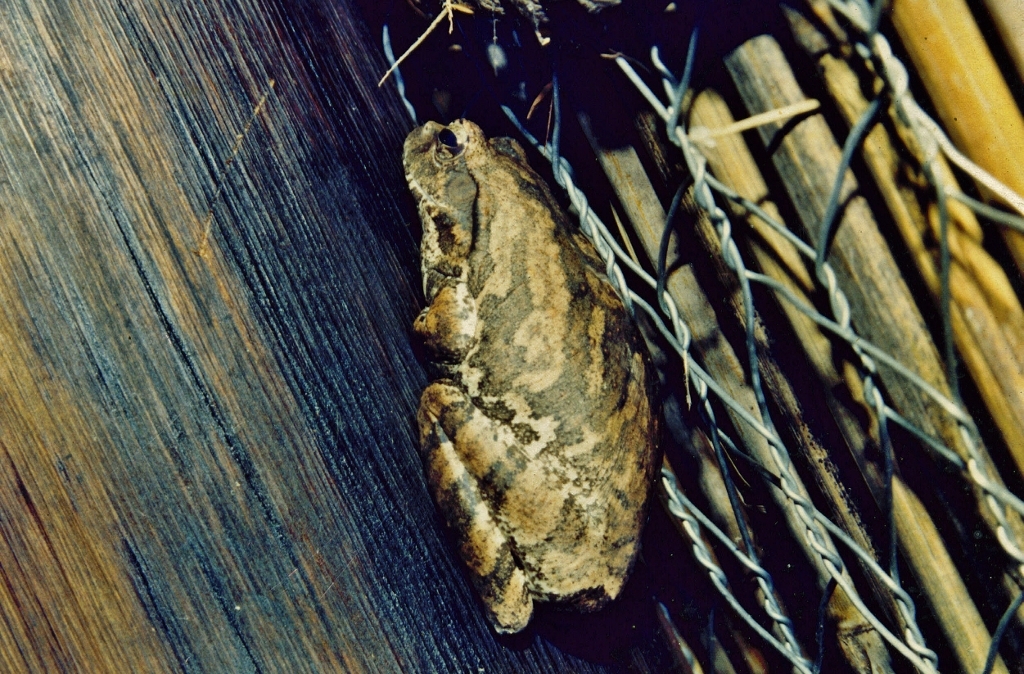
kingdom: Animalia
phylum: Chordata
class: Amphibia
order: Anura
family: Rhacophoridae
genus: Chiromantis
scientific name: Chiromantis xerampelina
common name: African gray treefrog
